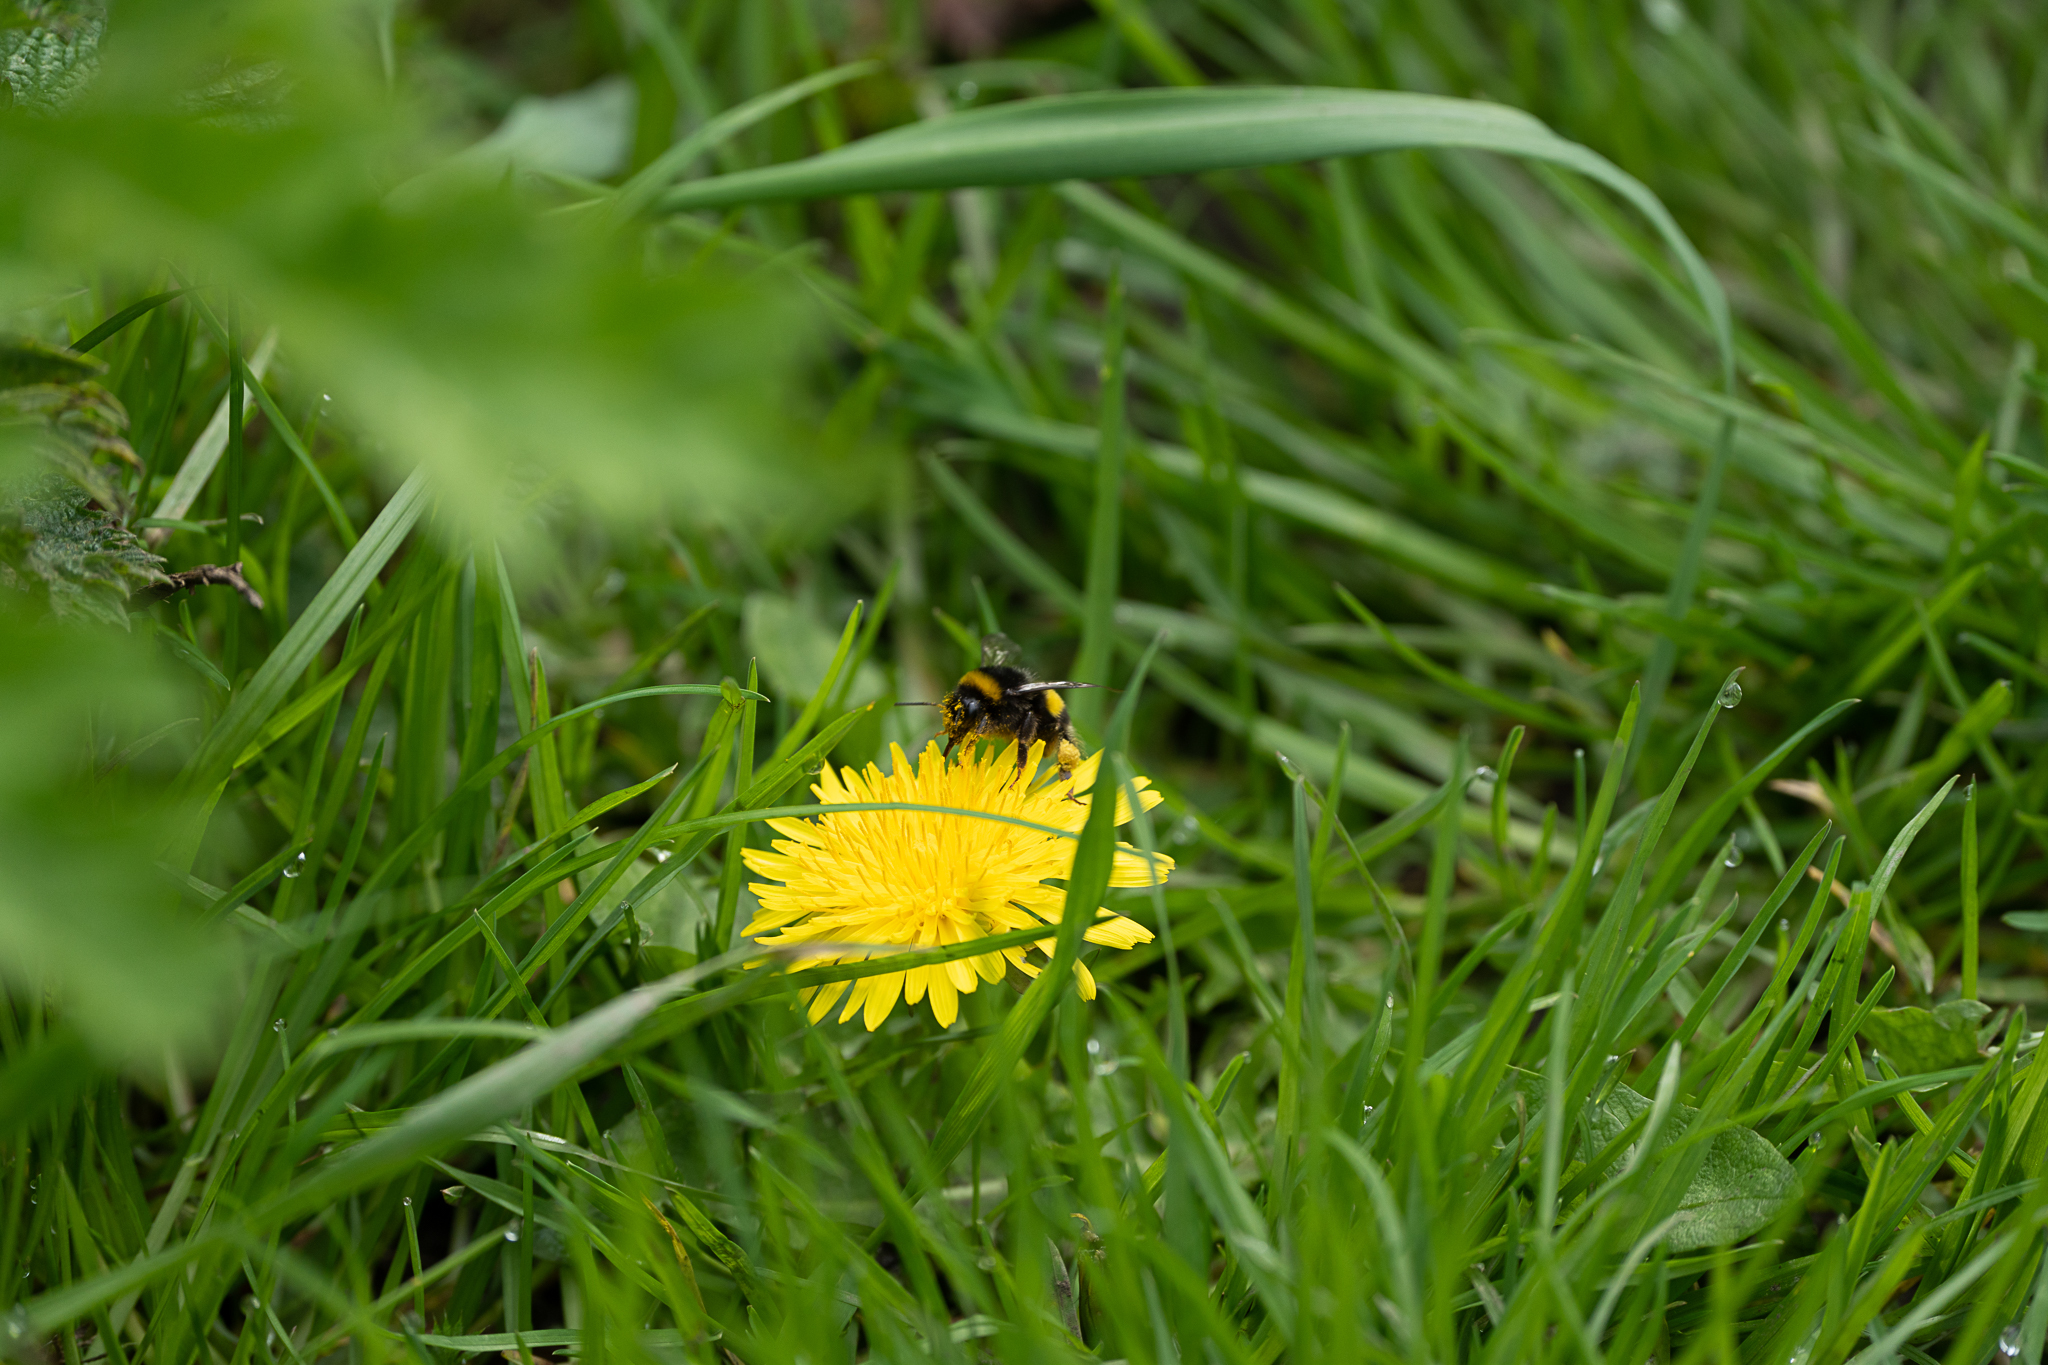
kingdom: Animalia
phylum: Arthropoda
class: Insecta
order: Hymenoptera
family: Apidae
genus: Bombus
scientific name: Bombus terrestris
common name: Buff-tailed bumblebee
